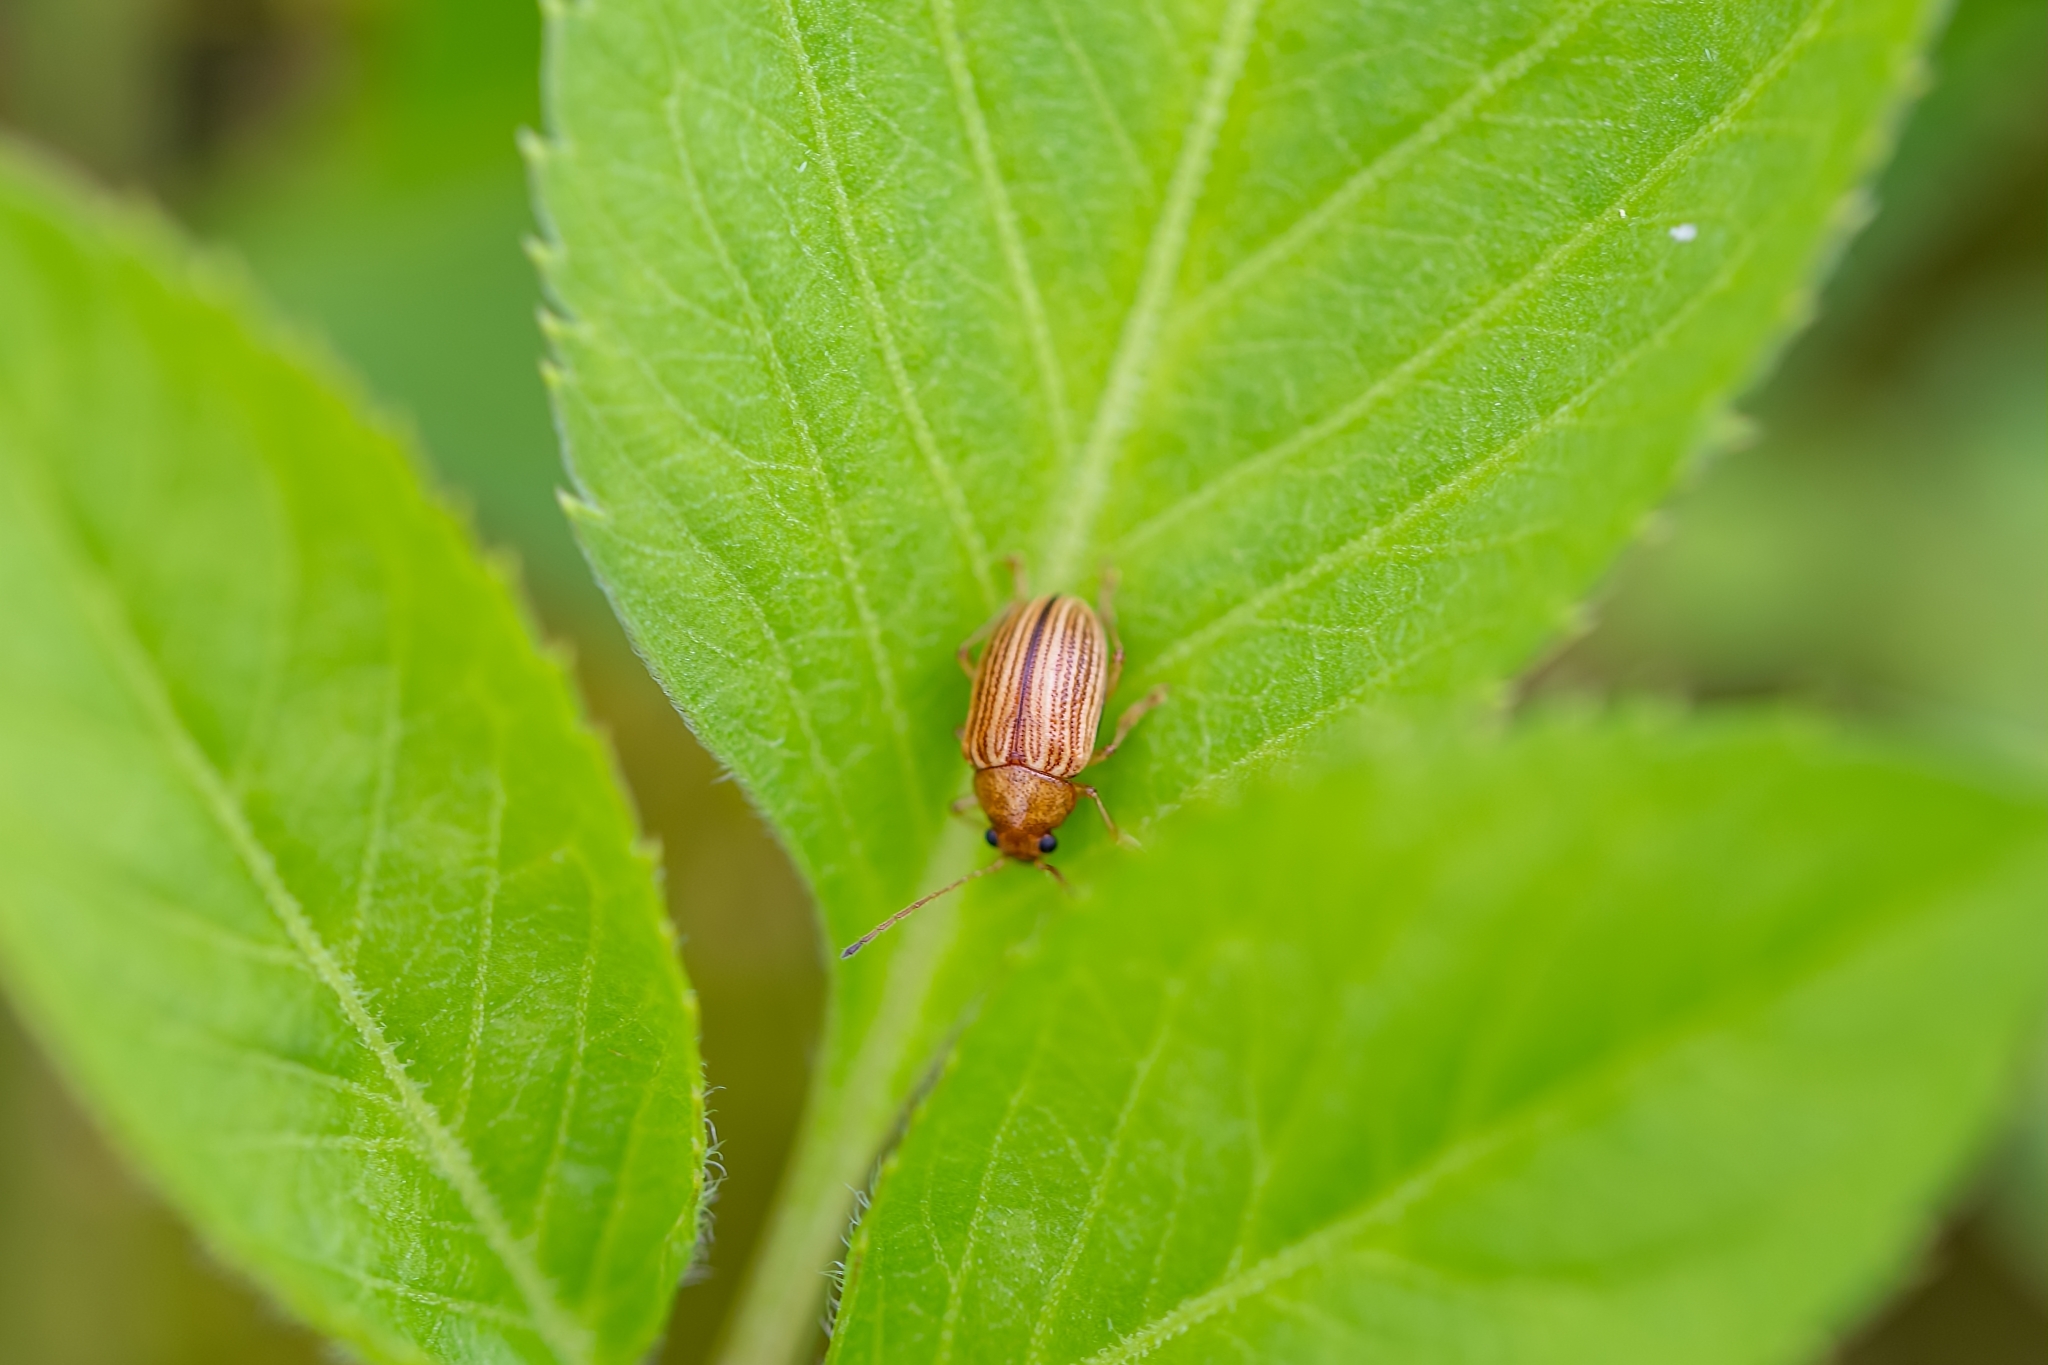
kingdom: Animalia
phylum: Arthropoda
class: Insecta
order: Coleoptera
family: Chrysomelidae
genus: Colaspis
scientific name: Colaspis floridana
